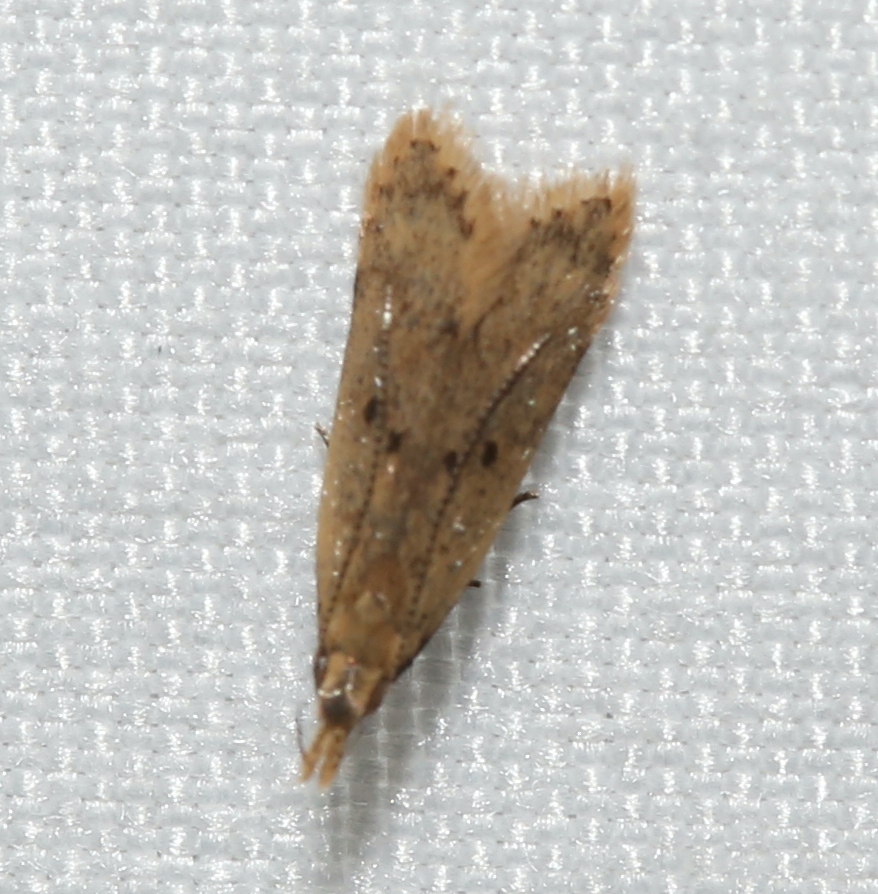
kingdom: Animalia
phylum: Arthropoda
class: Insecta
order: Lepidoptera
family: Gelechiidae
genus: Dichomeris
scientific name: Dichomeris punctipennella
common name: Many-spotted dichomeris moth
